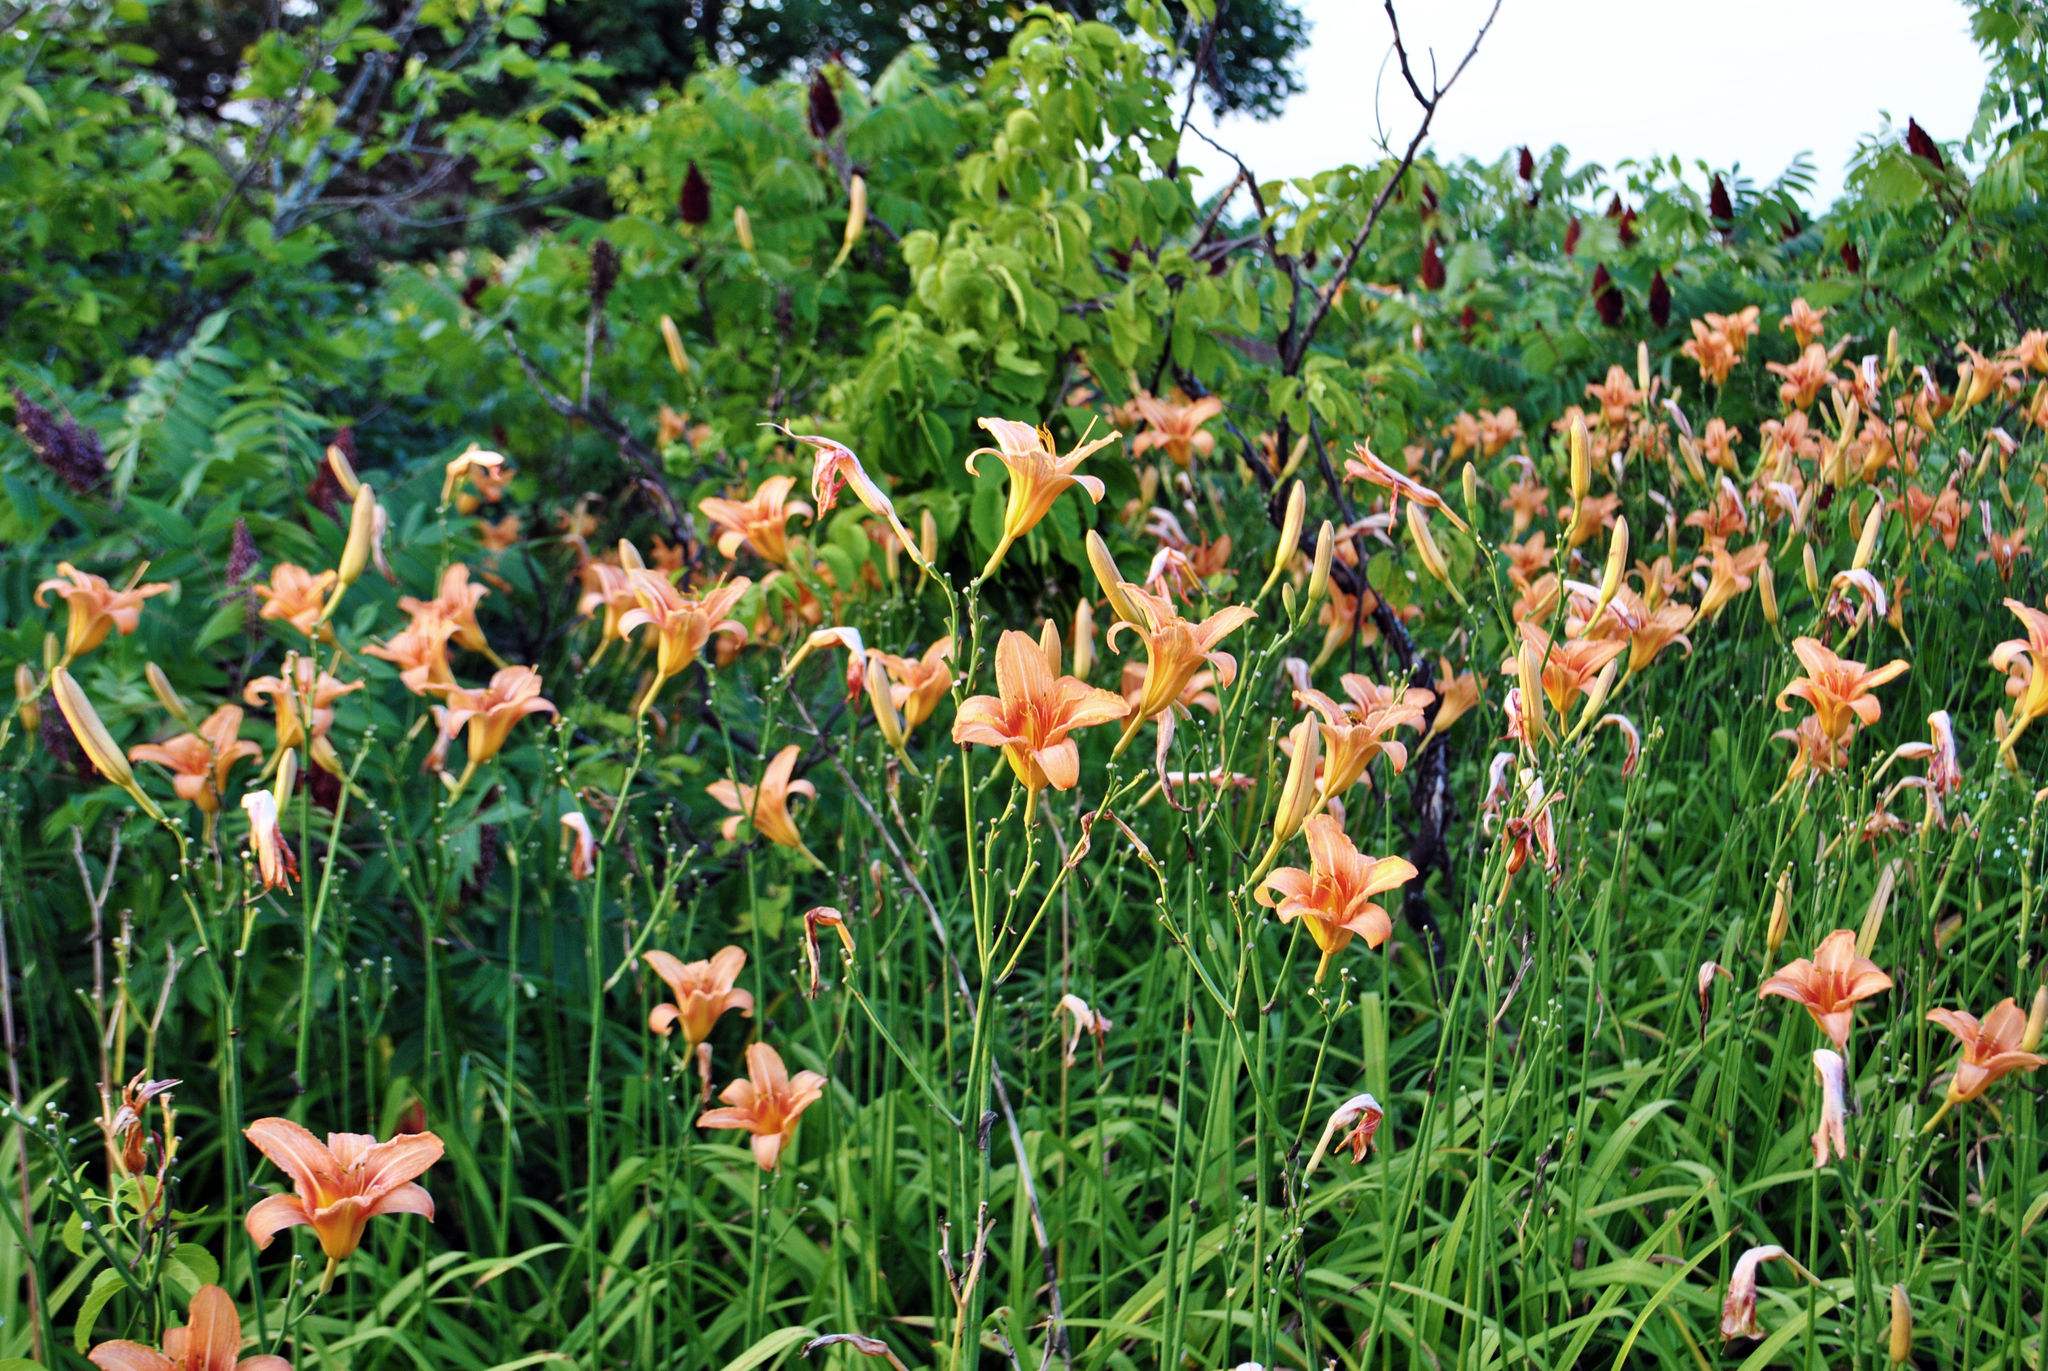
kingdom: Plantae
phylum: Tracheophyta
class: Liliopsida
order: Asparagales
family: Asphodelaceae
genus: Hemerocallis
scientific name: Hemerocallis fulva
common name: Orange day-lily
